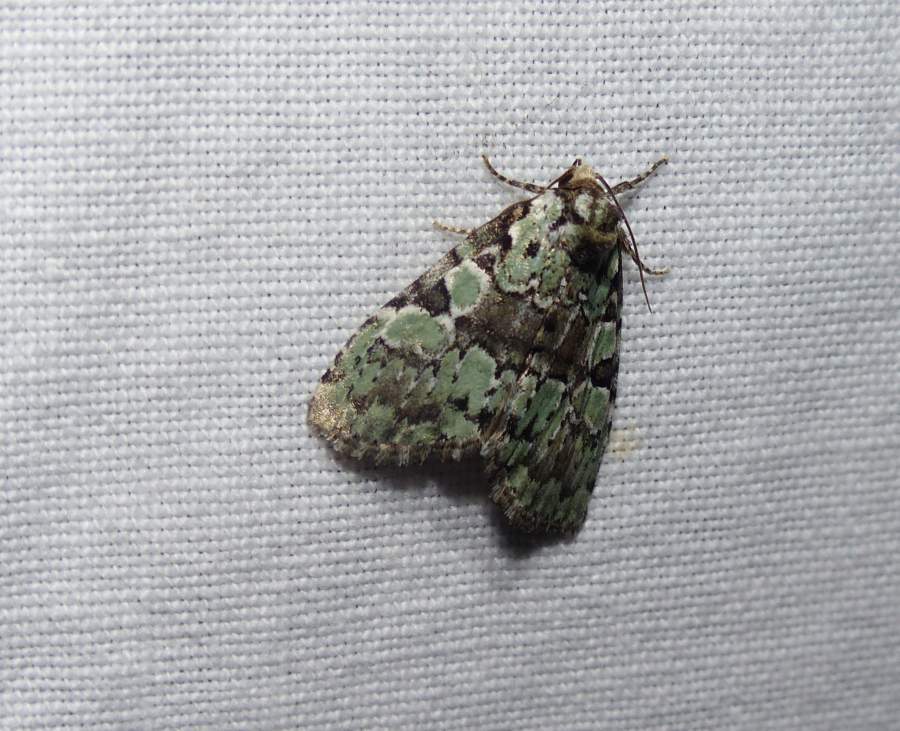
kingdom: Animalia
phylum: Arthropoda
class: Insecta
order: Lepidoptera
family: Noctuidae
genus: Leuconycta
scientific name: Leuconycta lepidula
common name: Marbled-green leuconycta moth
